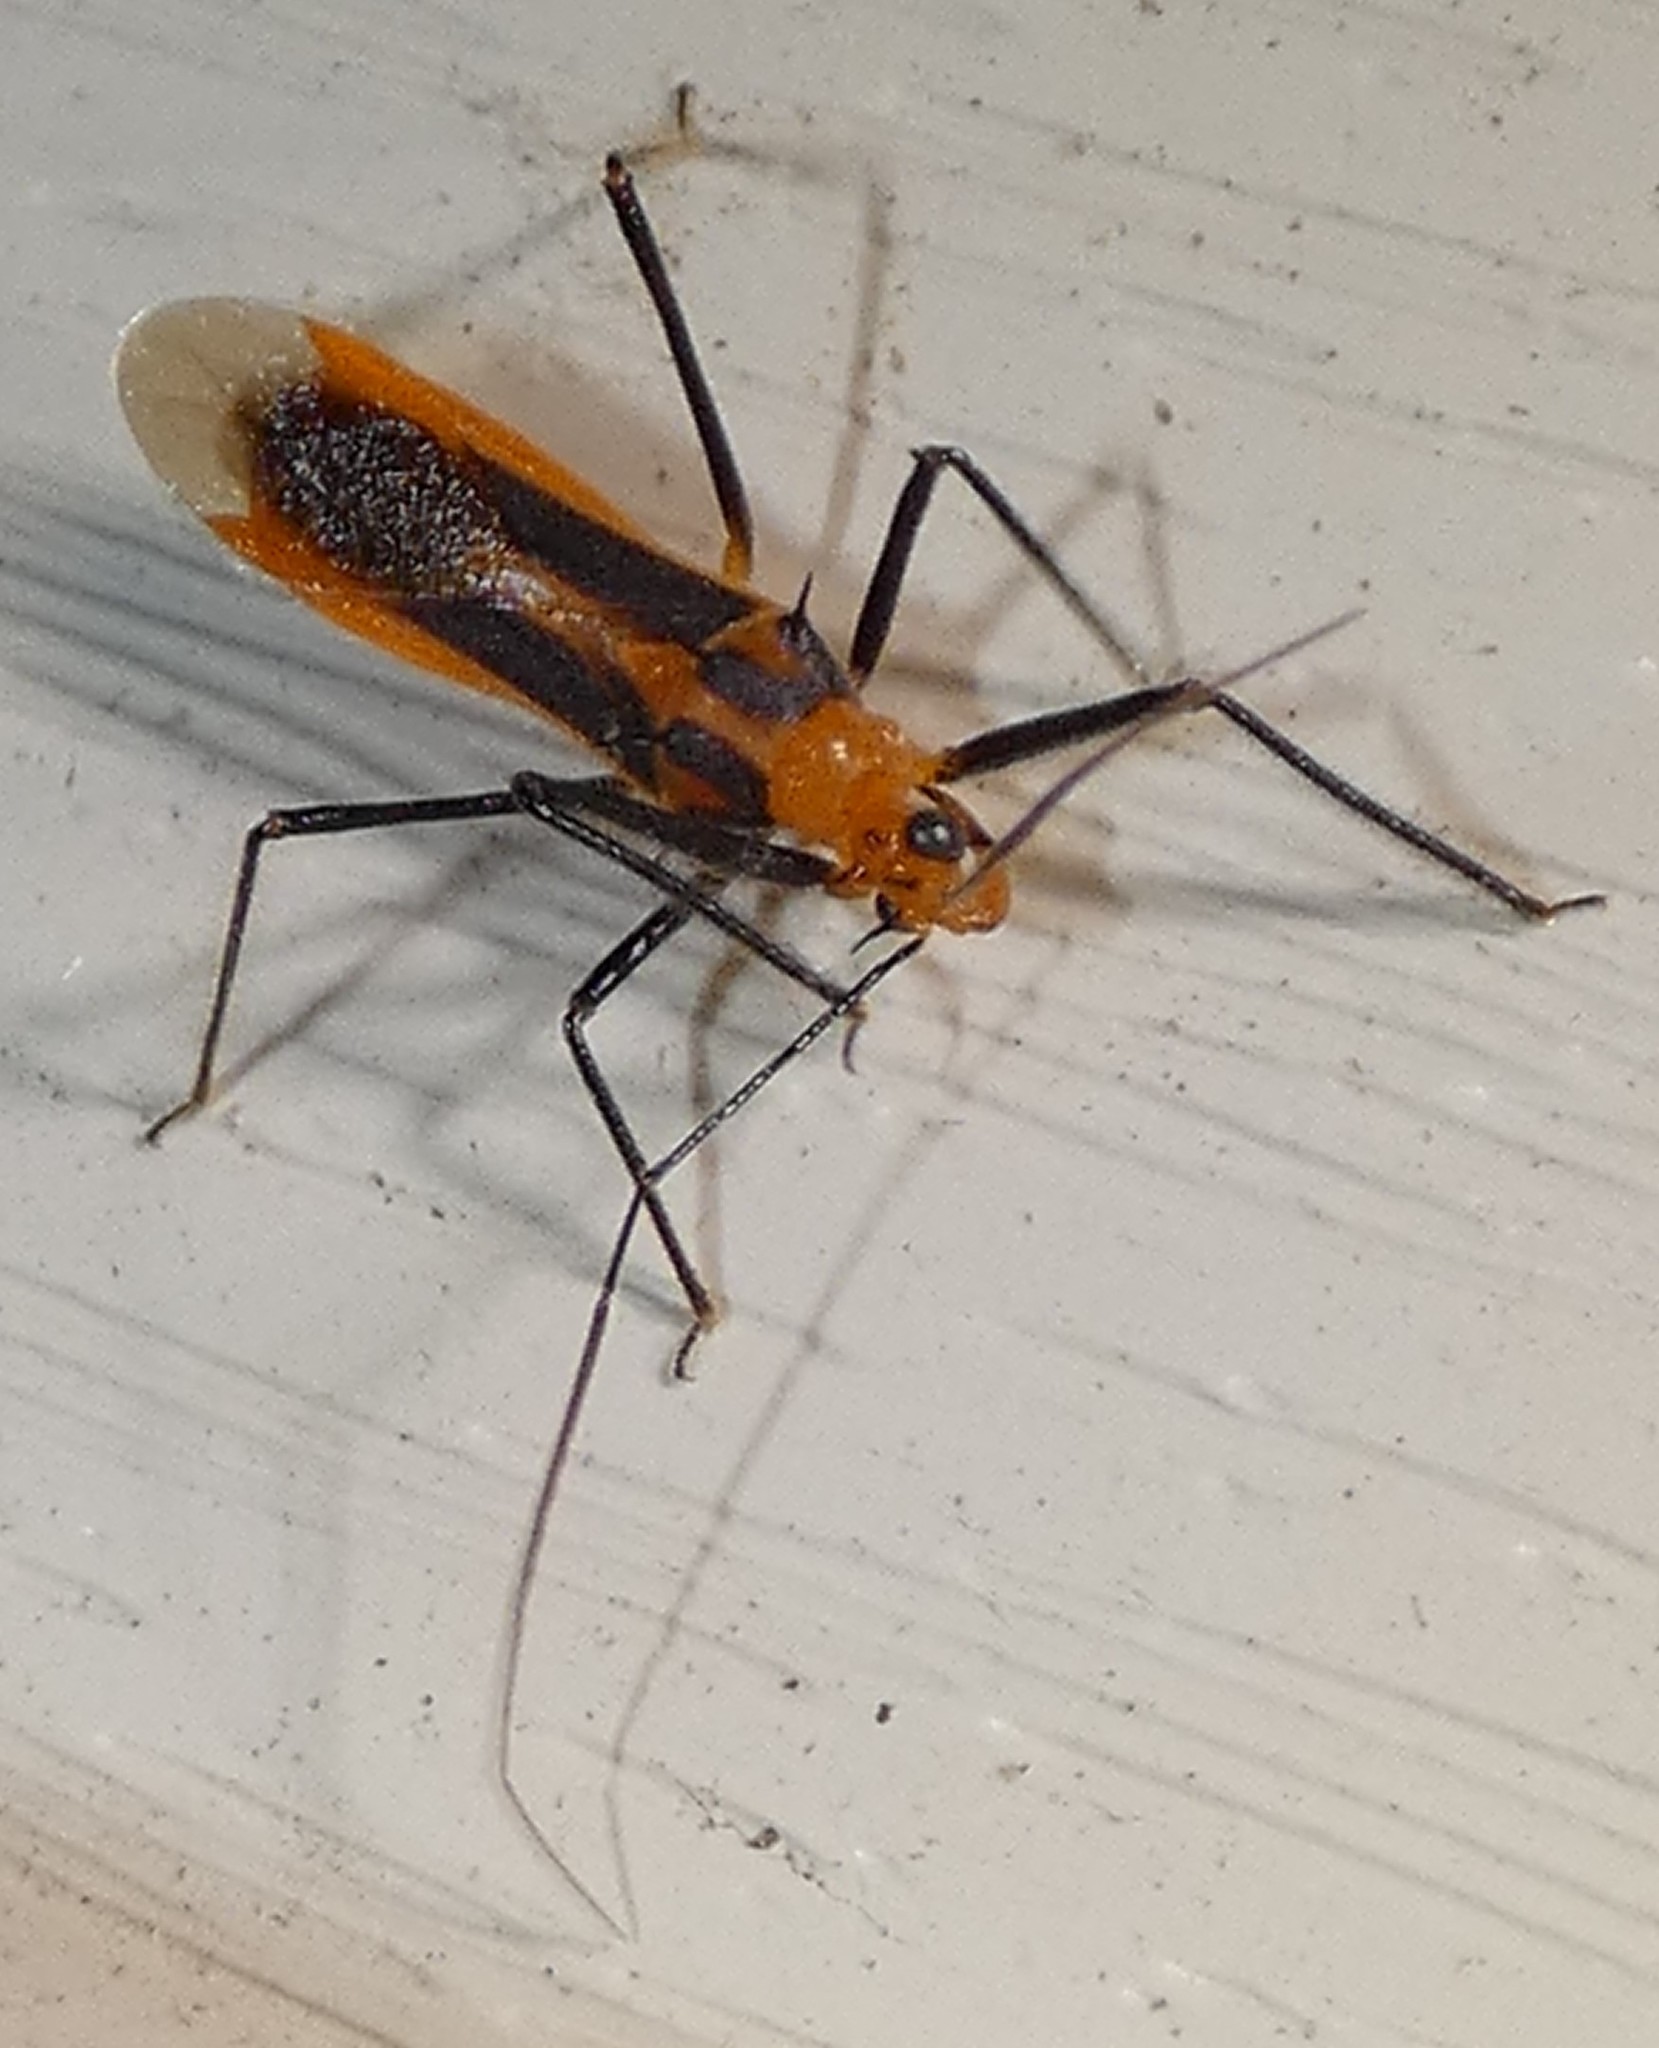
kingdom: Animalia
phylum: Arthropoda
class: Insecta
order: Hemiptera
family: Reduviidae
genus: Repipta
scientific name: Repipta taurus
